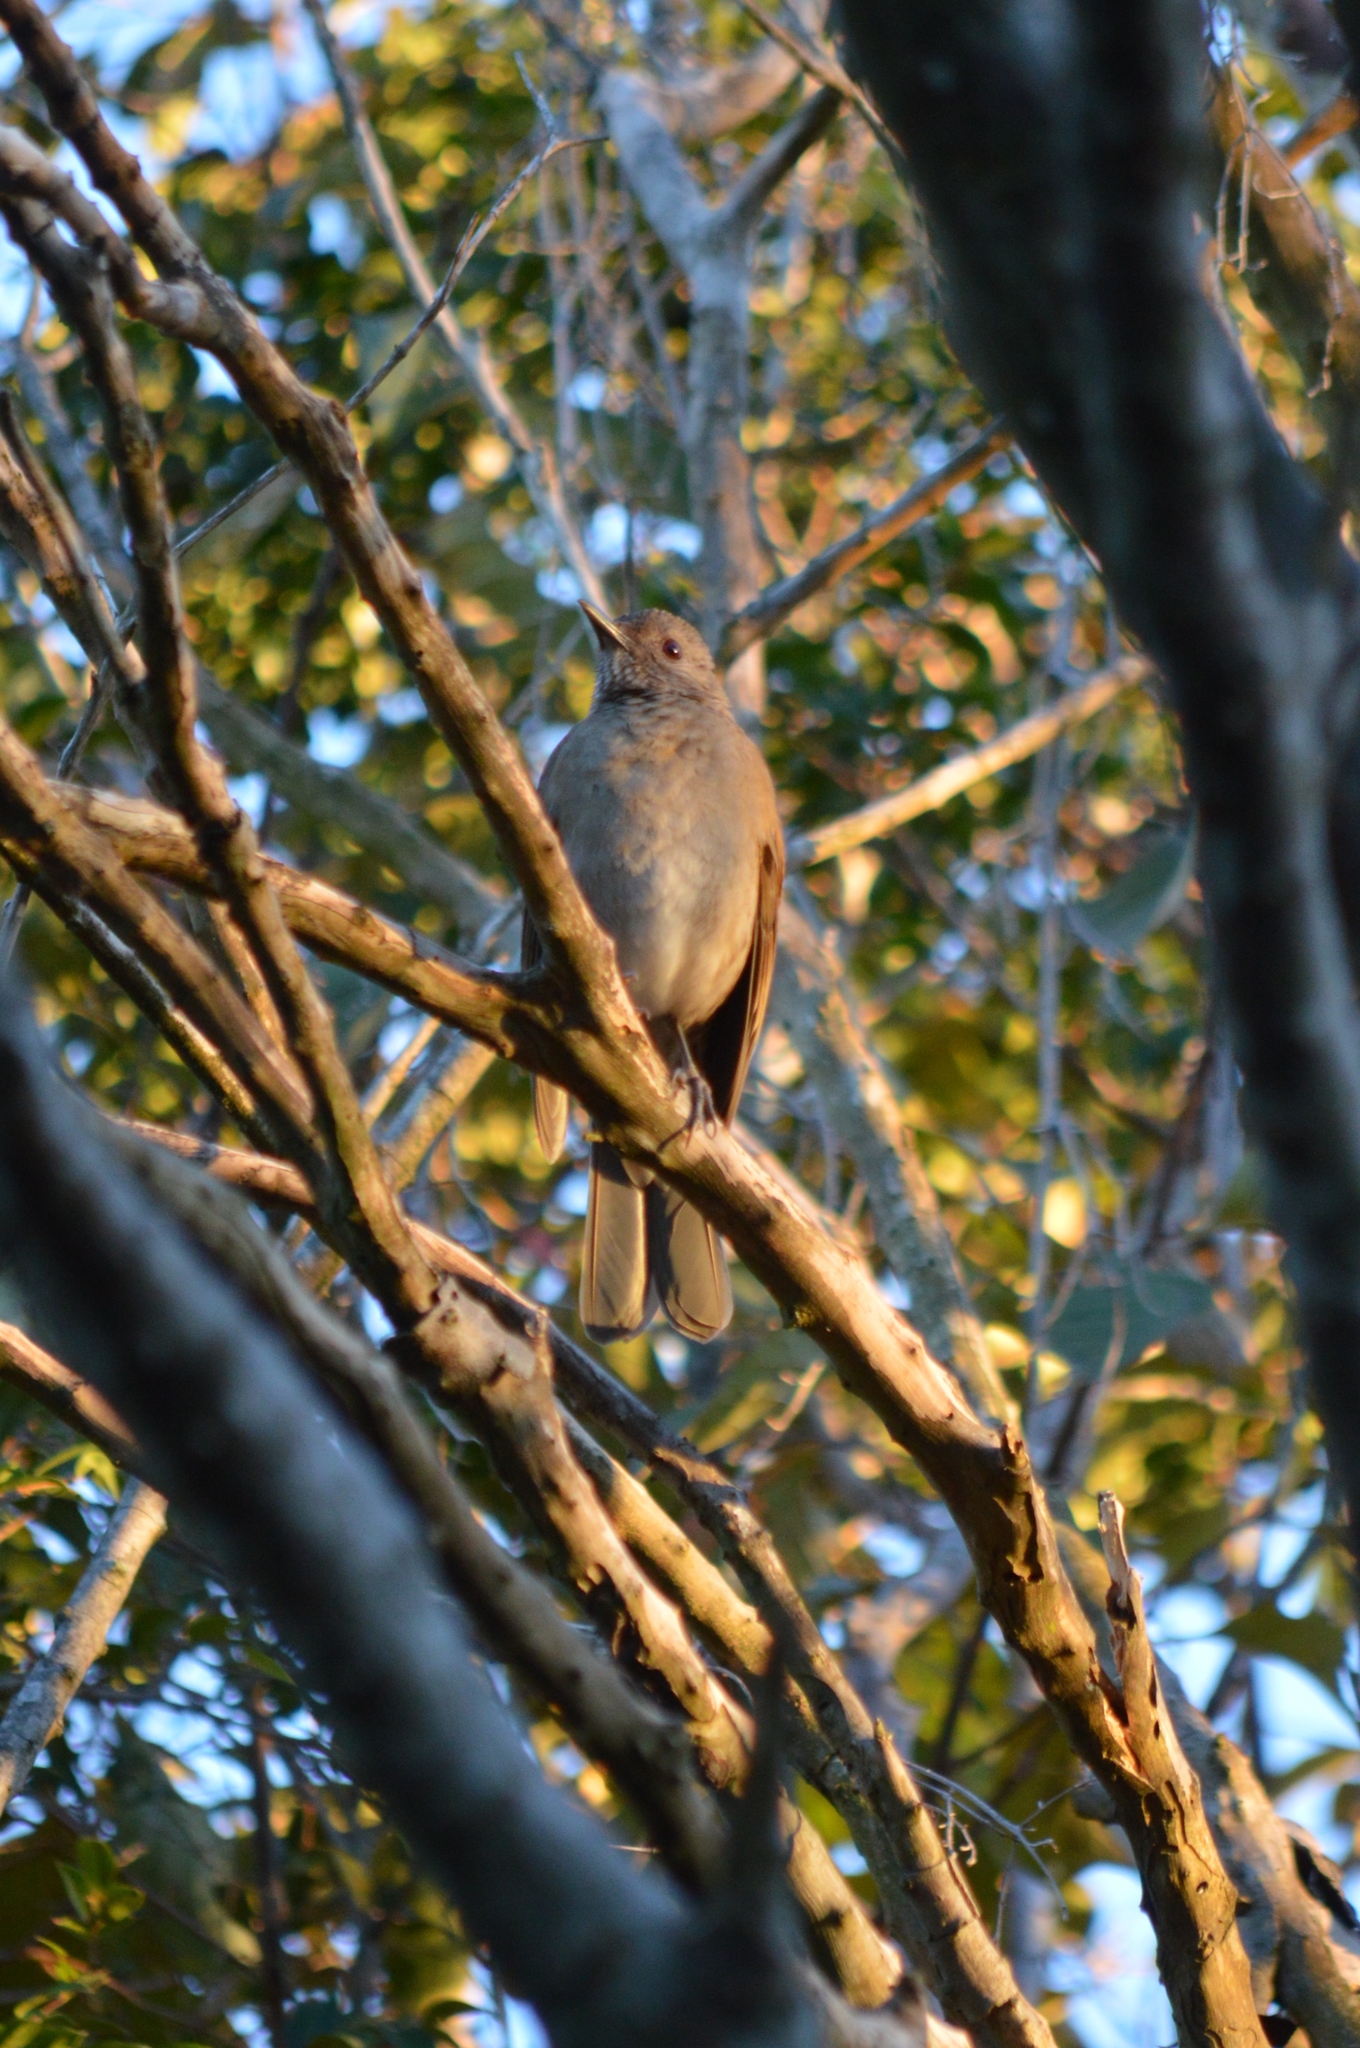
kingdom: Animalia
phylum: Chordata
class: Aves
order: Passeriformes
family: Turdidae
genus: Turdus
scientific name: Turdus leucomelas
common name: Pale-breasted thrush
